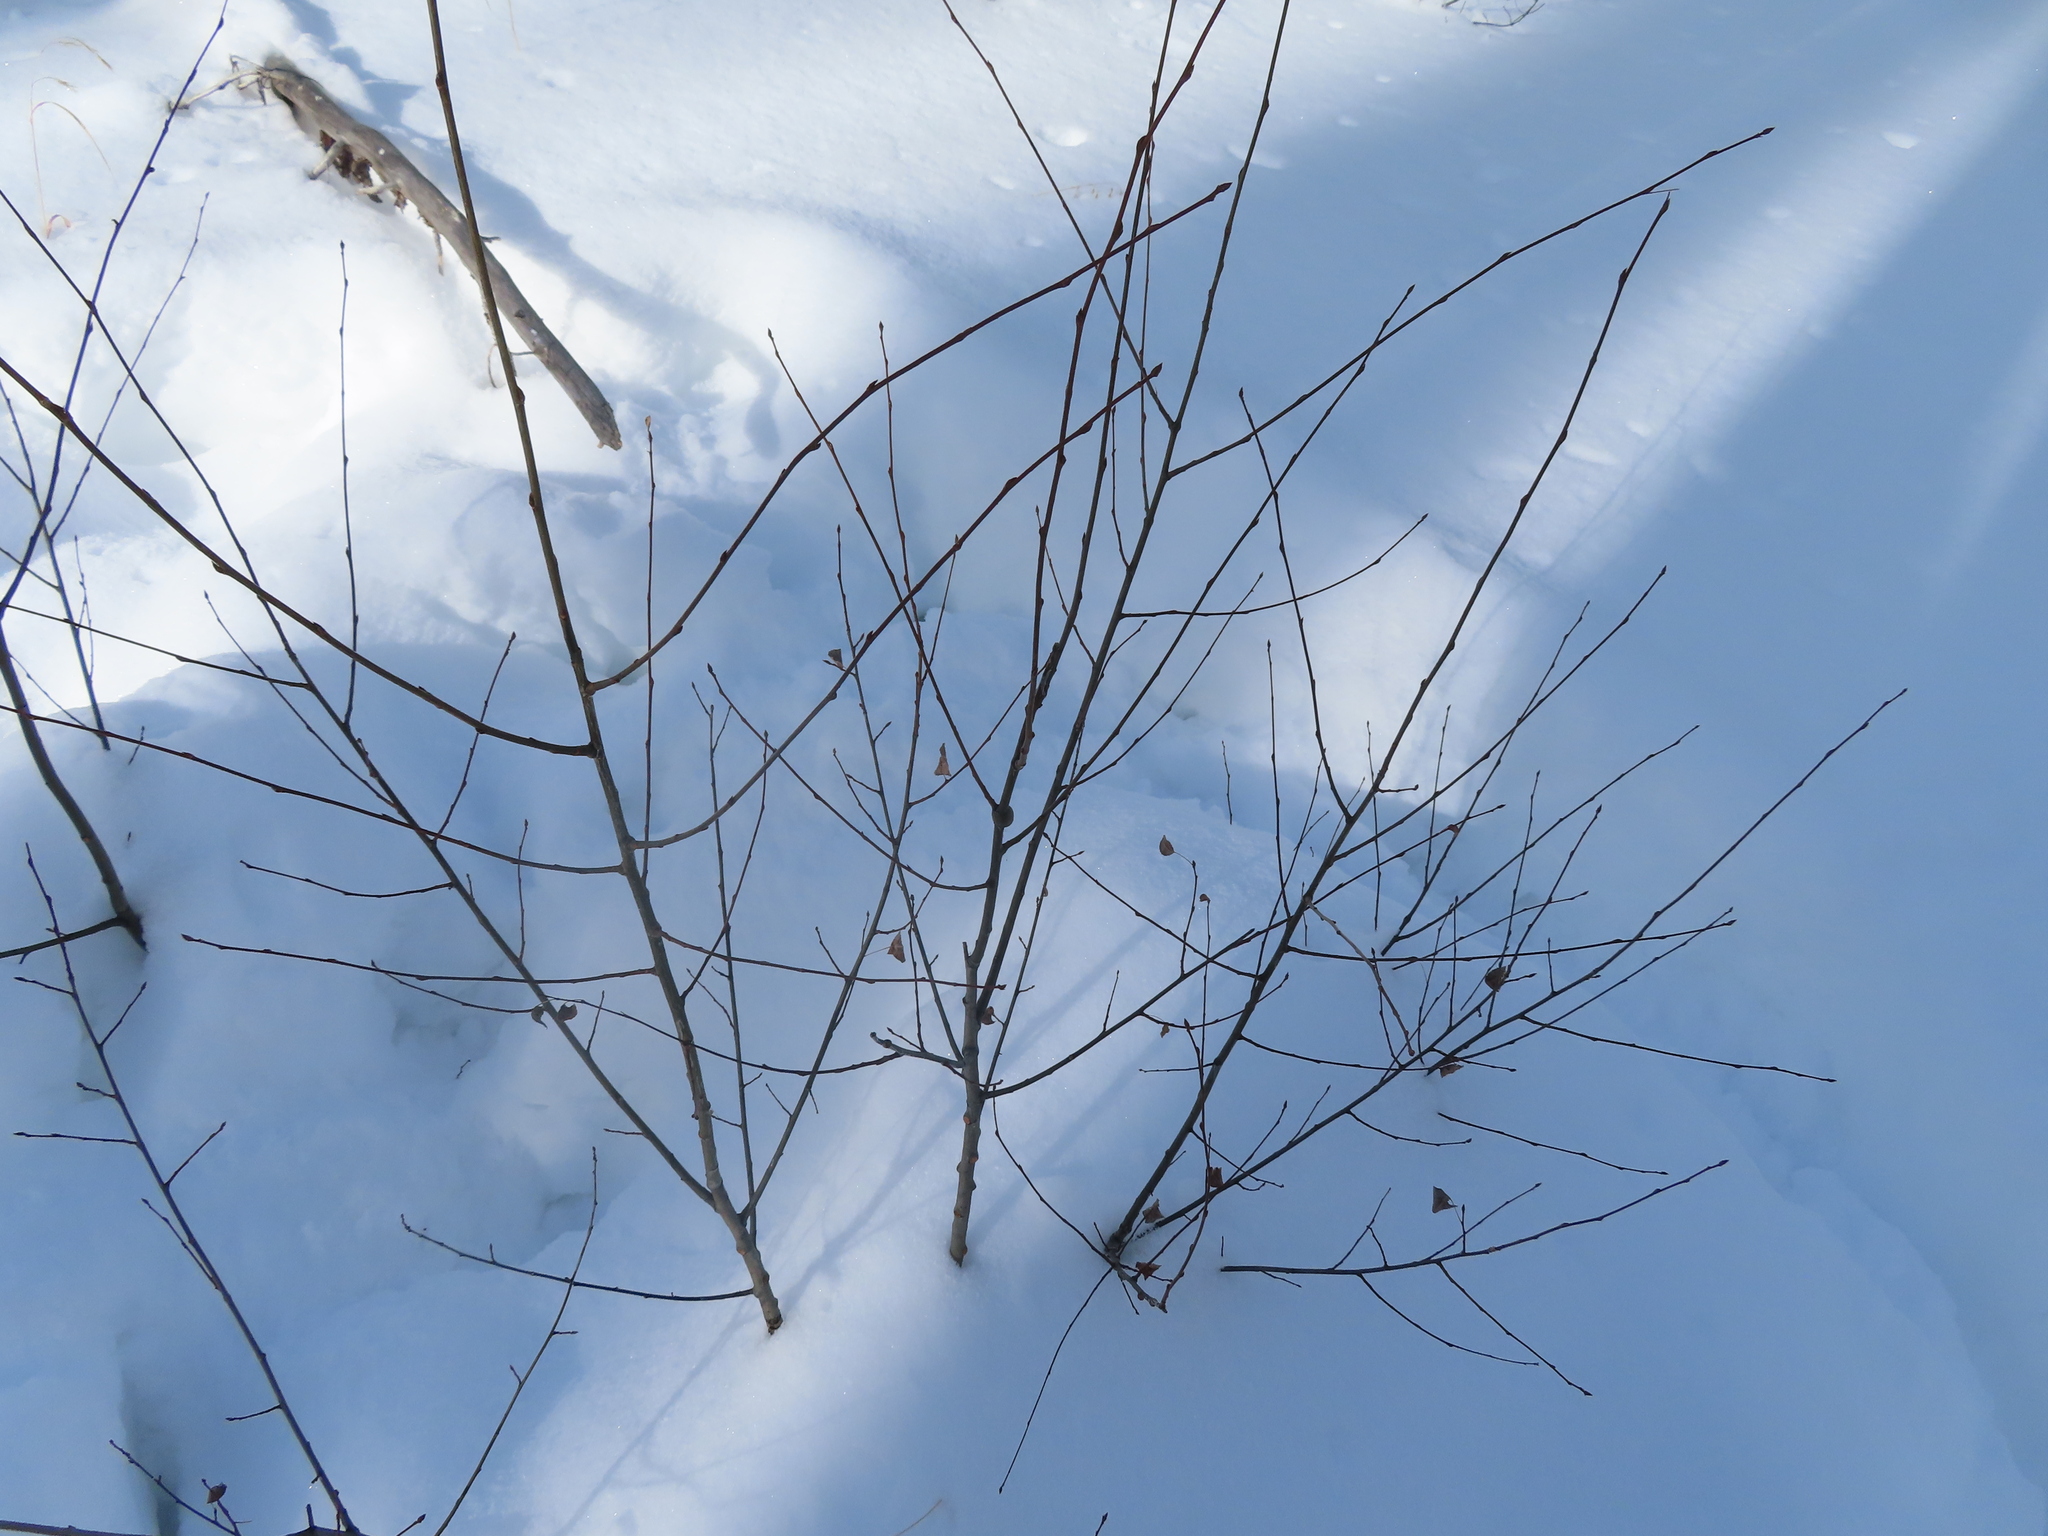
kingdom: Plantae
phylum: Tracheophyta
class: Magnoliopsida
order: Malpighiales
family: Salicaceae
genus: Populus
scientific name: Populus tremuloides
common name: Quaking aspen
